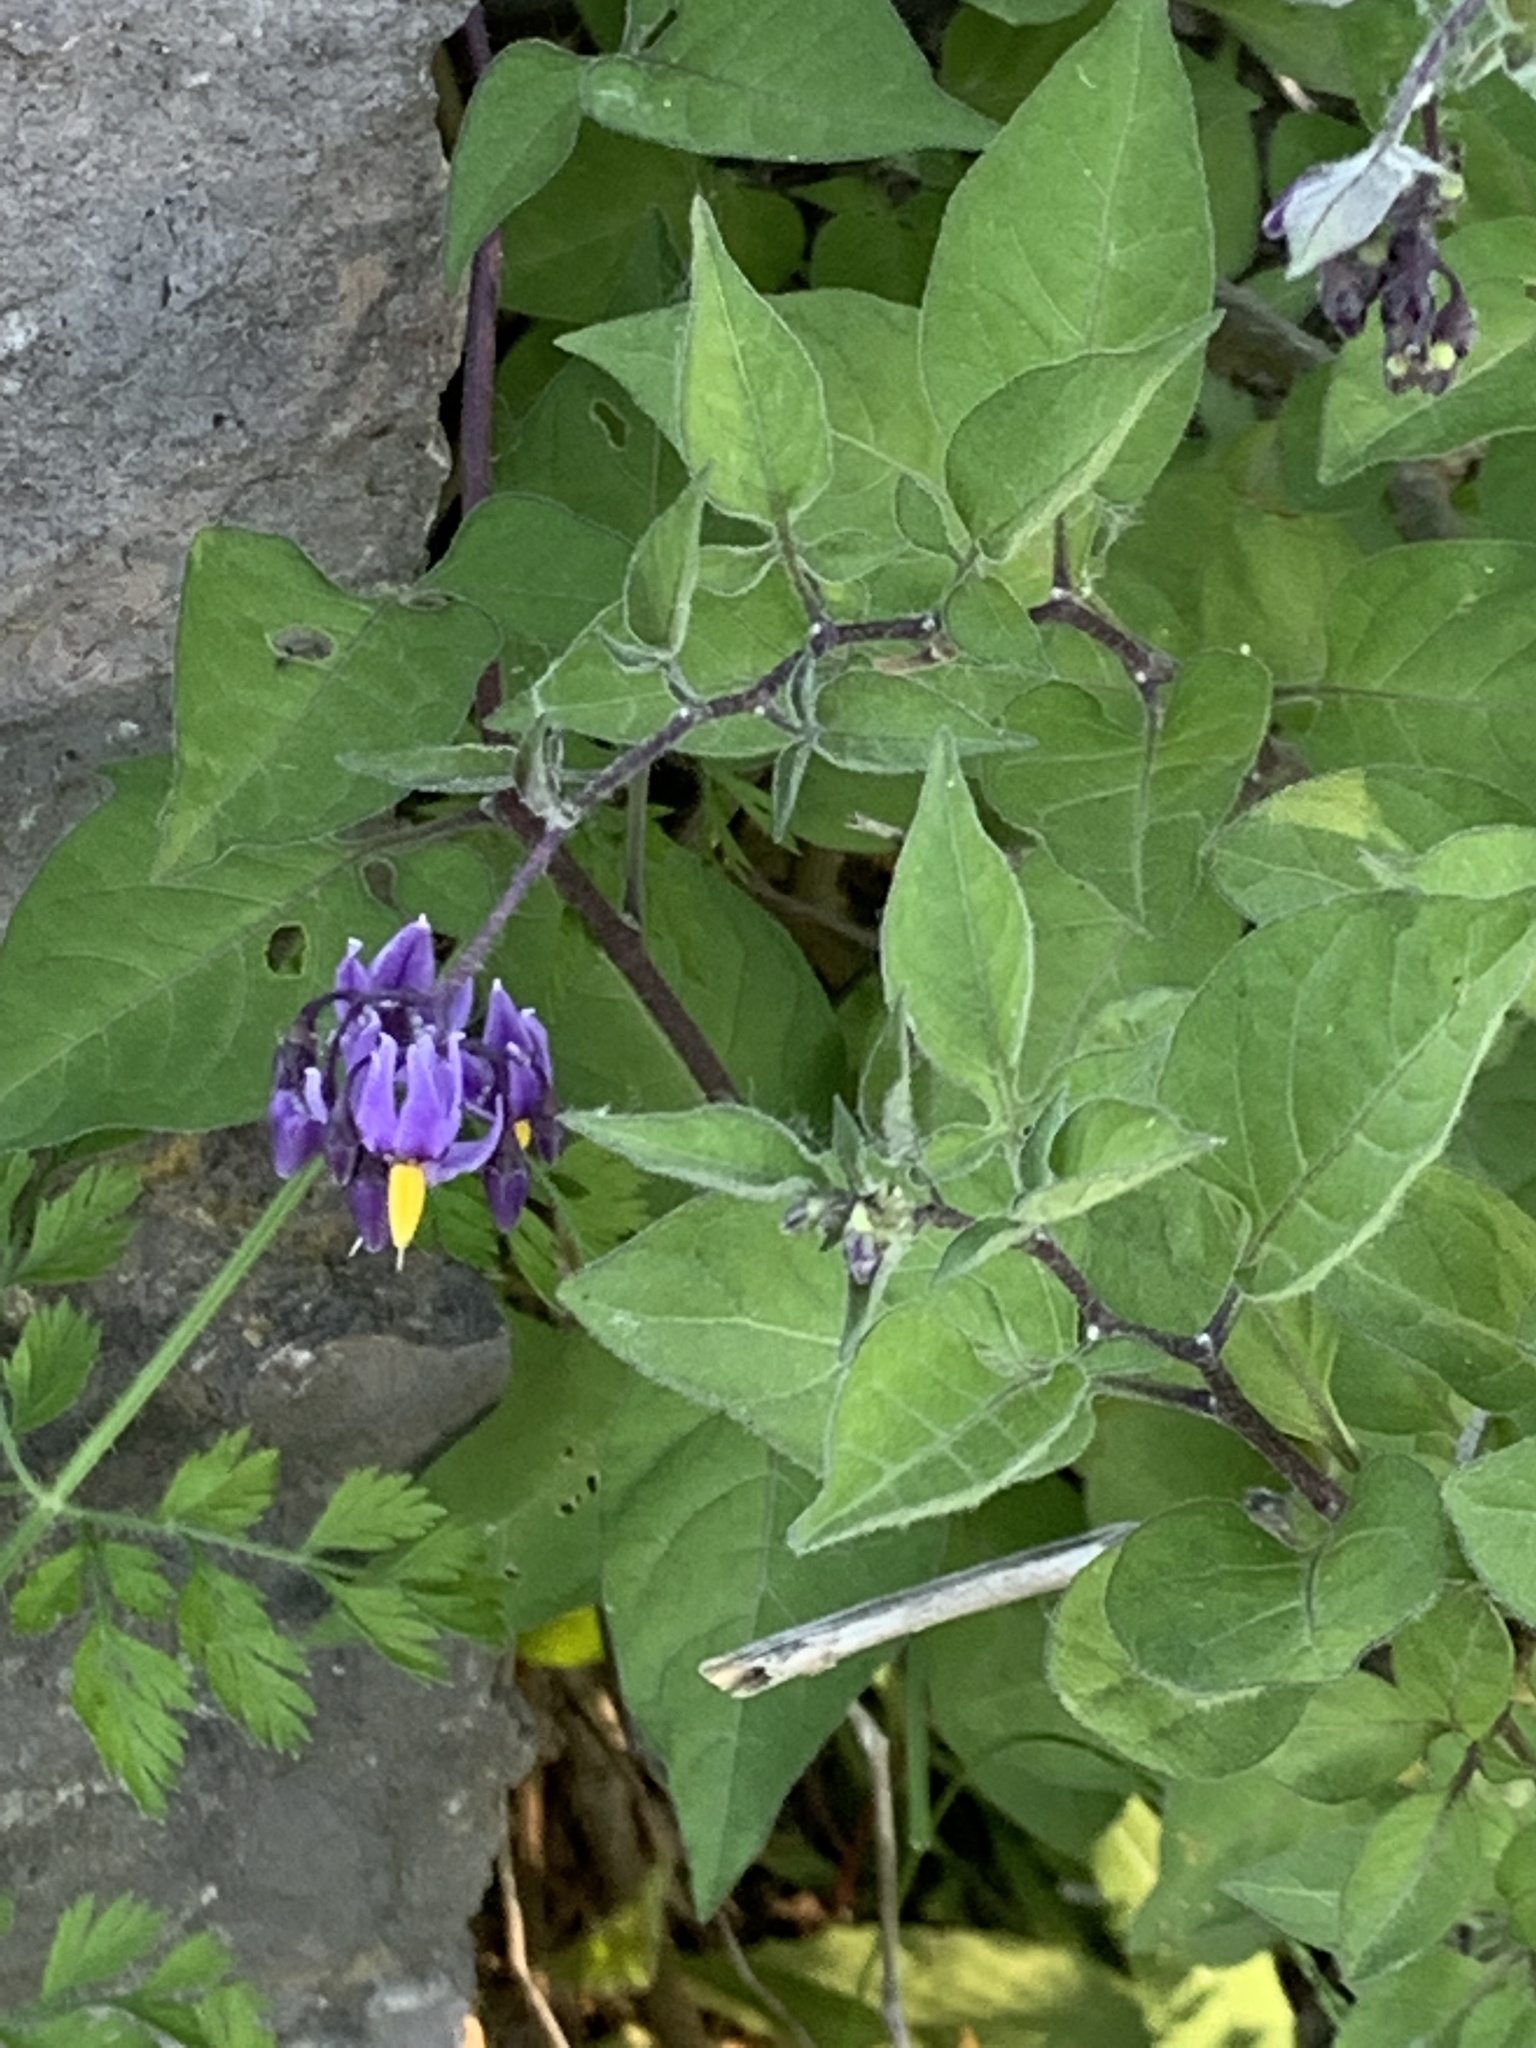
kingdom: Plantae
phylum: Tracheophyta
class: Magnoliopsida
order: Solanales
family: Solanaceae
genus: Solanum
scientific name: Solanum dulcamara
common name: Climbing nightshade
